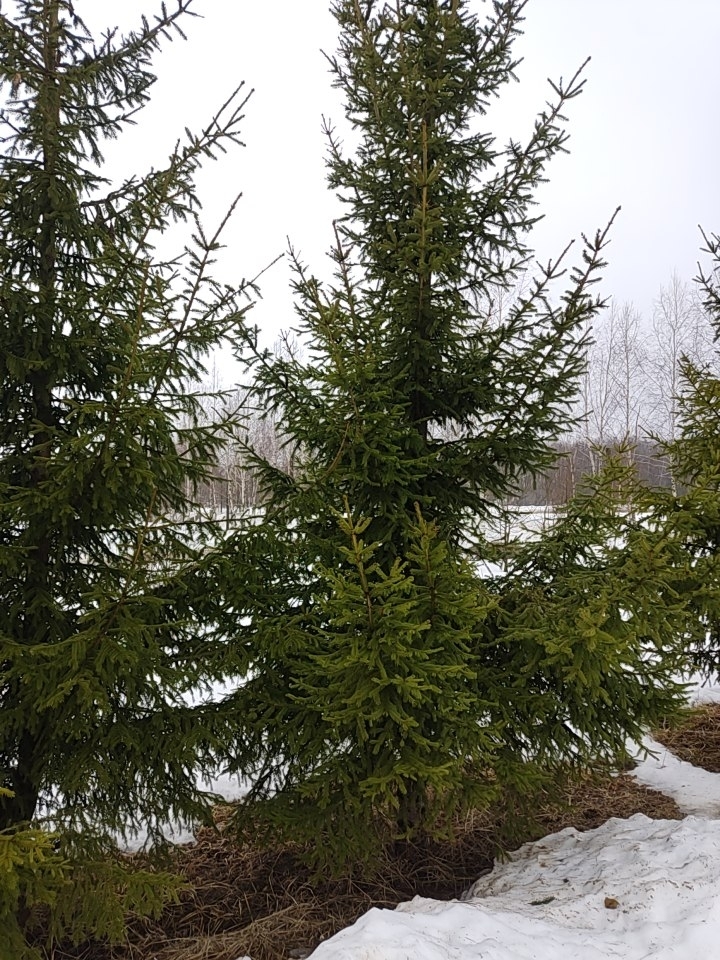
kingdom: Plantae
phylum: Tracheophyta
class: Pinopsida
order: Pinales
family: Pinaceae
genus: Picea
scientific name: Picea abies
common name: Norway spruce
